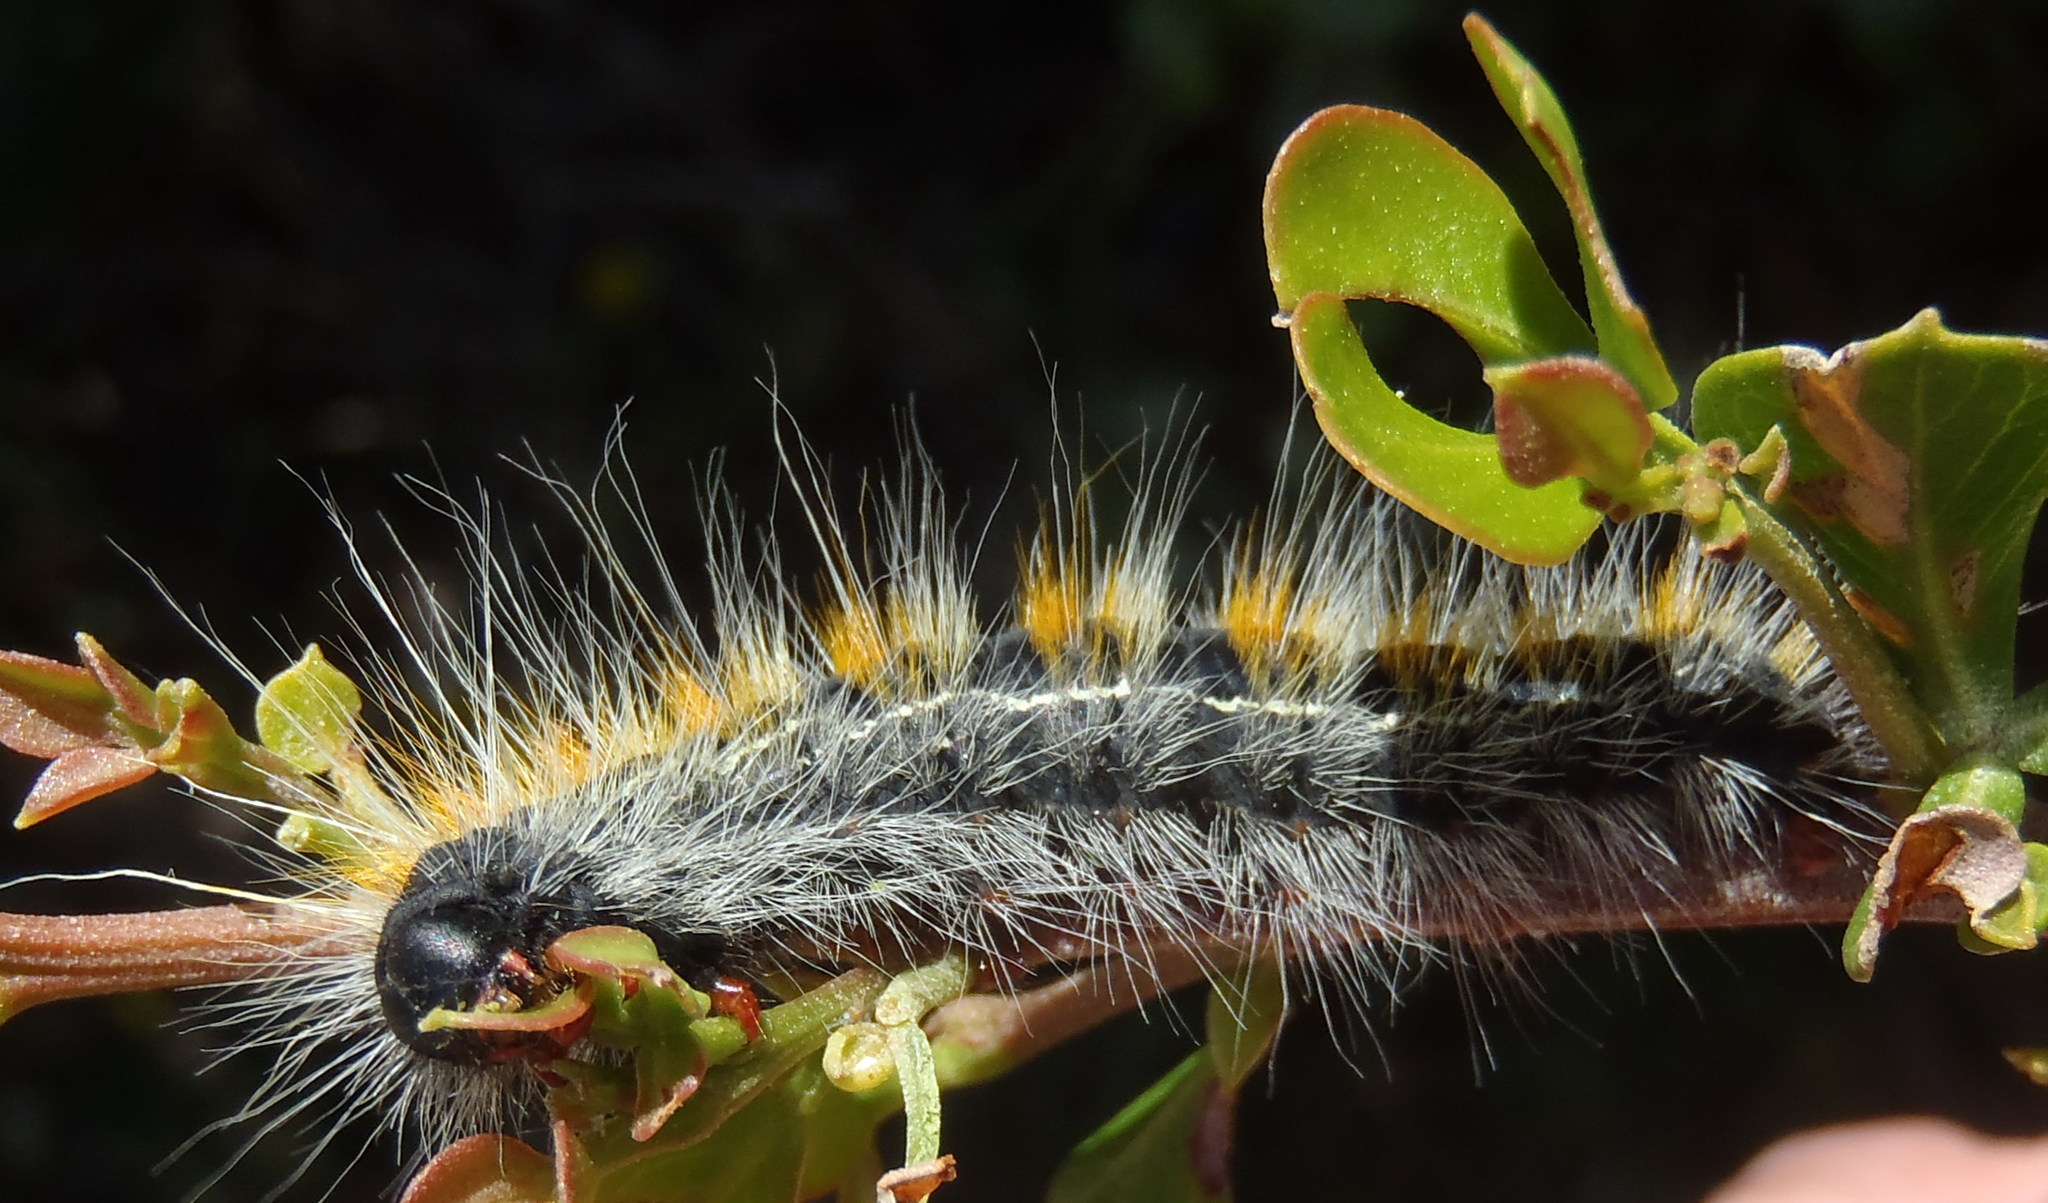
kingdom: Animalia
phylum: Arthropoda
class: Insecta
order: Lepidoptera
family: Lasiocampidae
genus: Bombycomorpha
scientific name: Bombycomorpha bifascia
